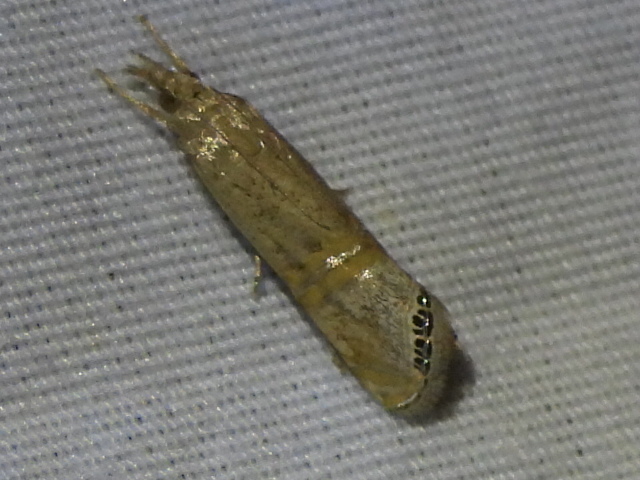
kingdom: Animalia
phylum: Arthropoda
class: Insecta
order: Lepidoptera
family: Crambidae
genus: Euchromius
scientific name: Euchromius ocellea
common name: Necklace veneer moth
